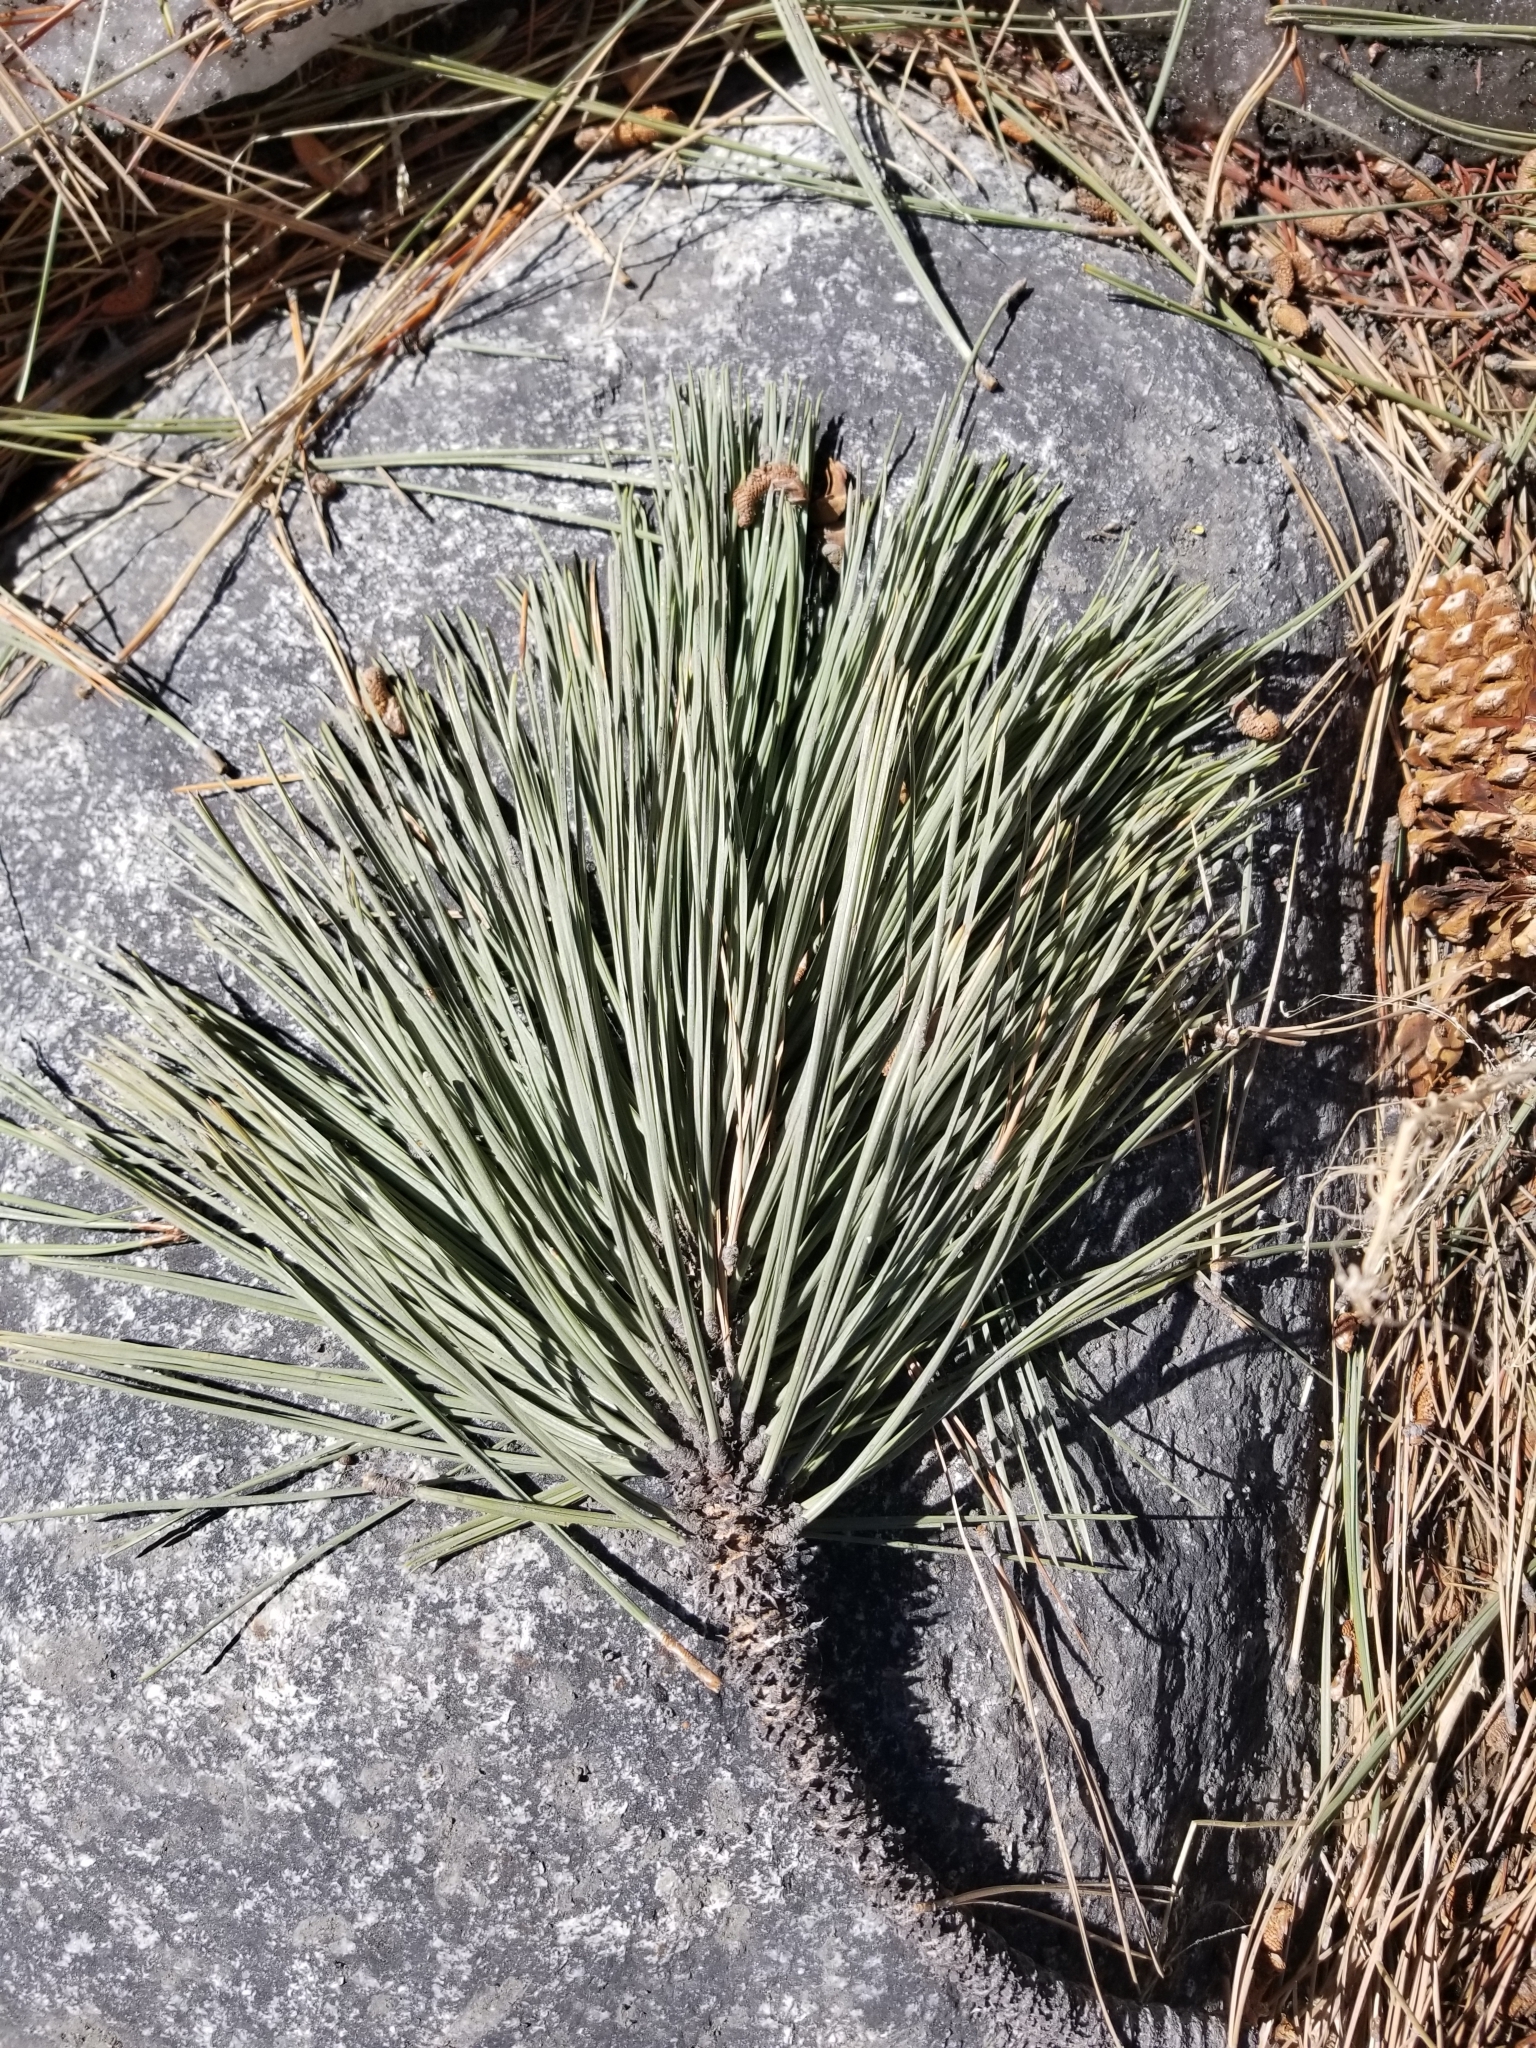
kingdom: Plantae
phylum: Tracheophyta
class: Pinopsida
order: Pinales
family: Pinaceae
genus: Pinus
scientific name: Pinus jeffreyi
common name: Jeffrey pine
